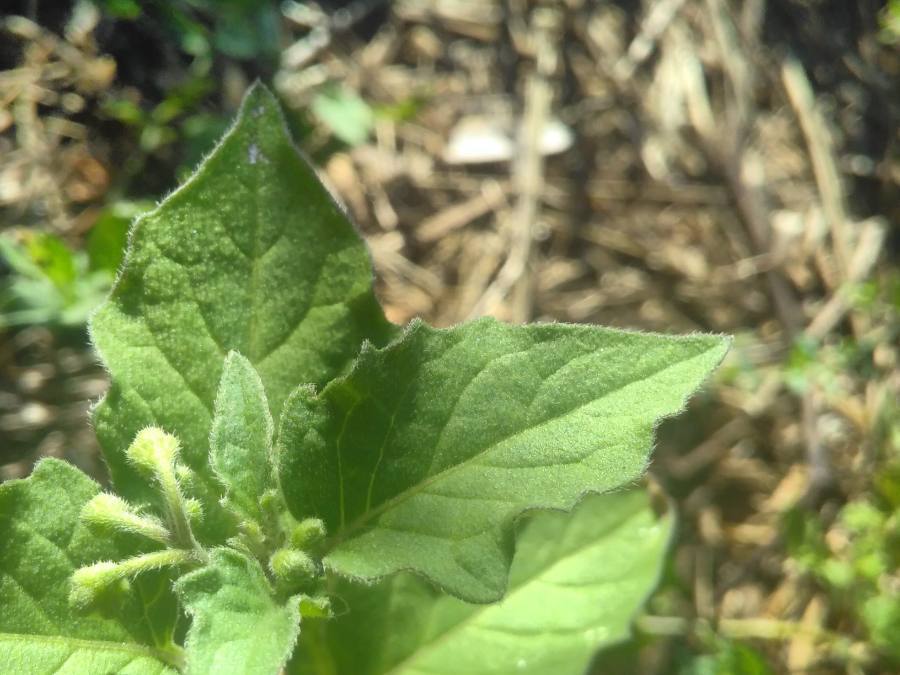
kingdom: Plantae
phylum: Tracheophyta
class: Magnoliopsida
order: Solanales
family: Solanaceae
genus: Solanum
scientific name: Solanum nigrum
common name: Black nightshade
